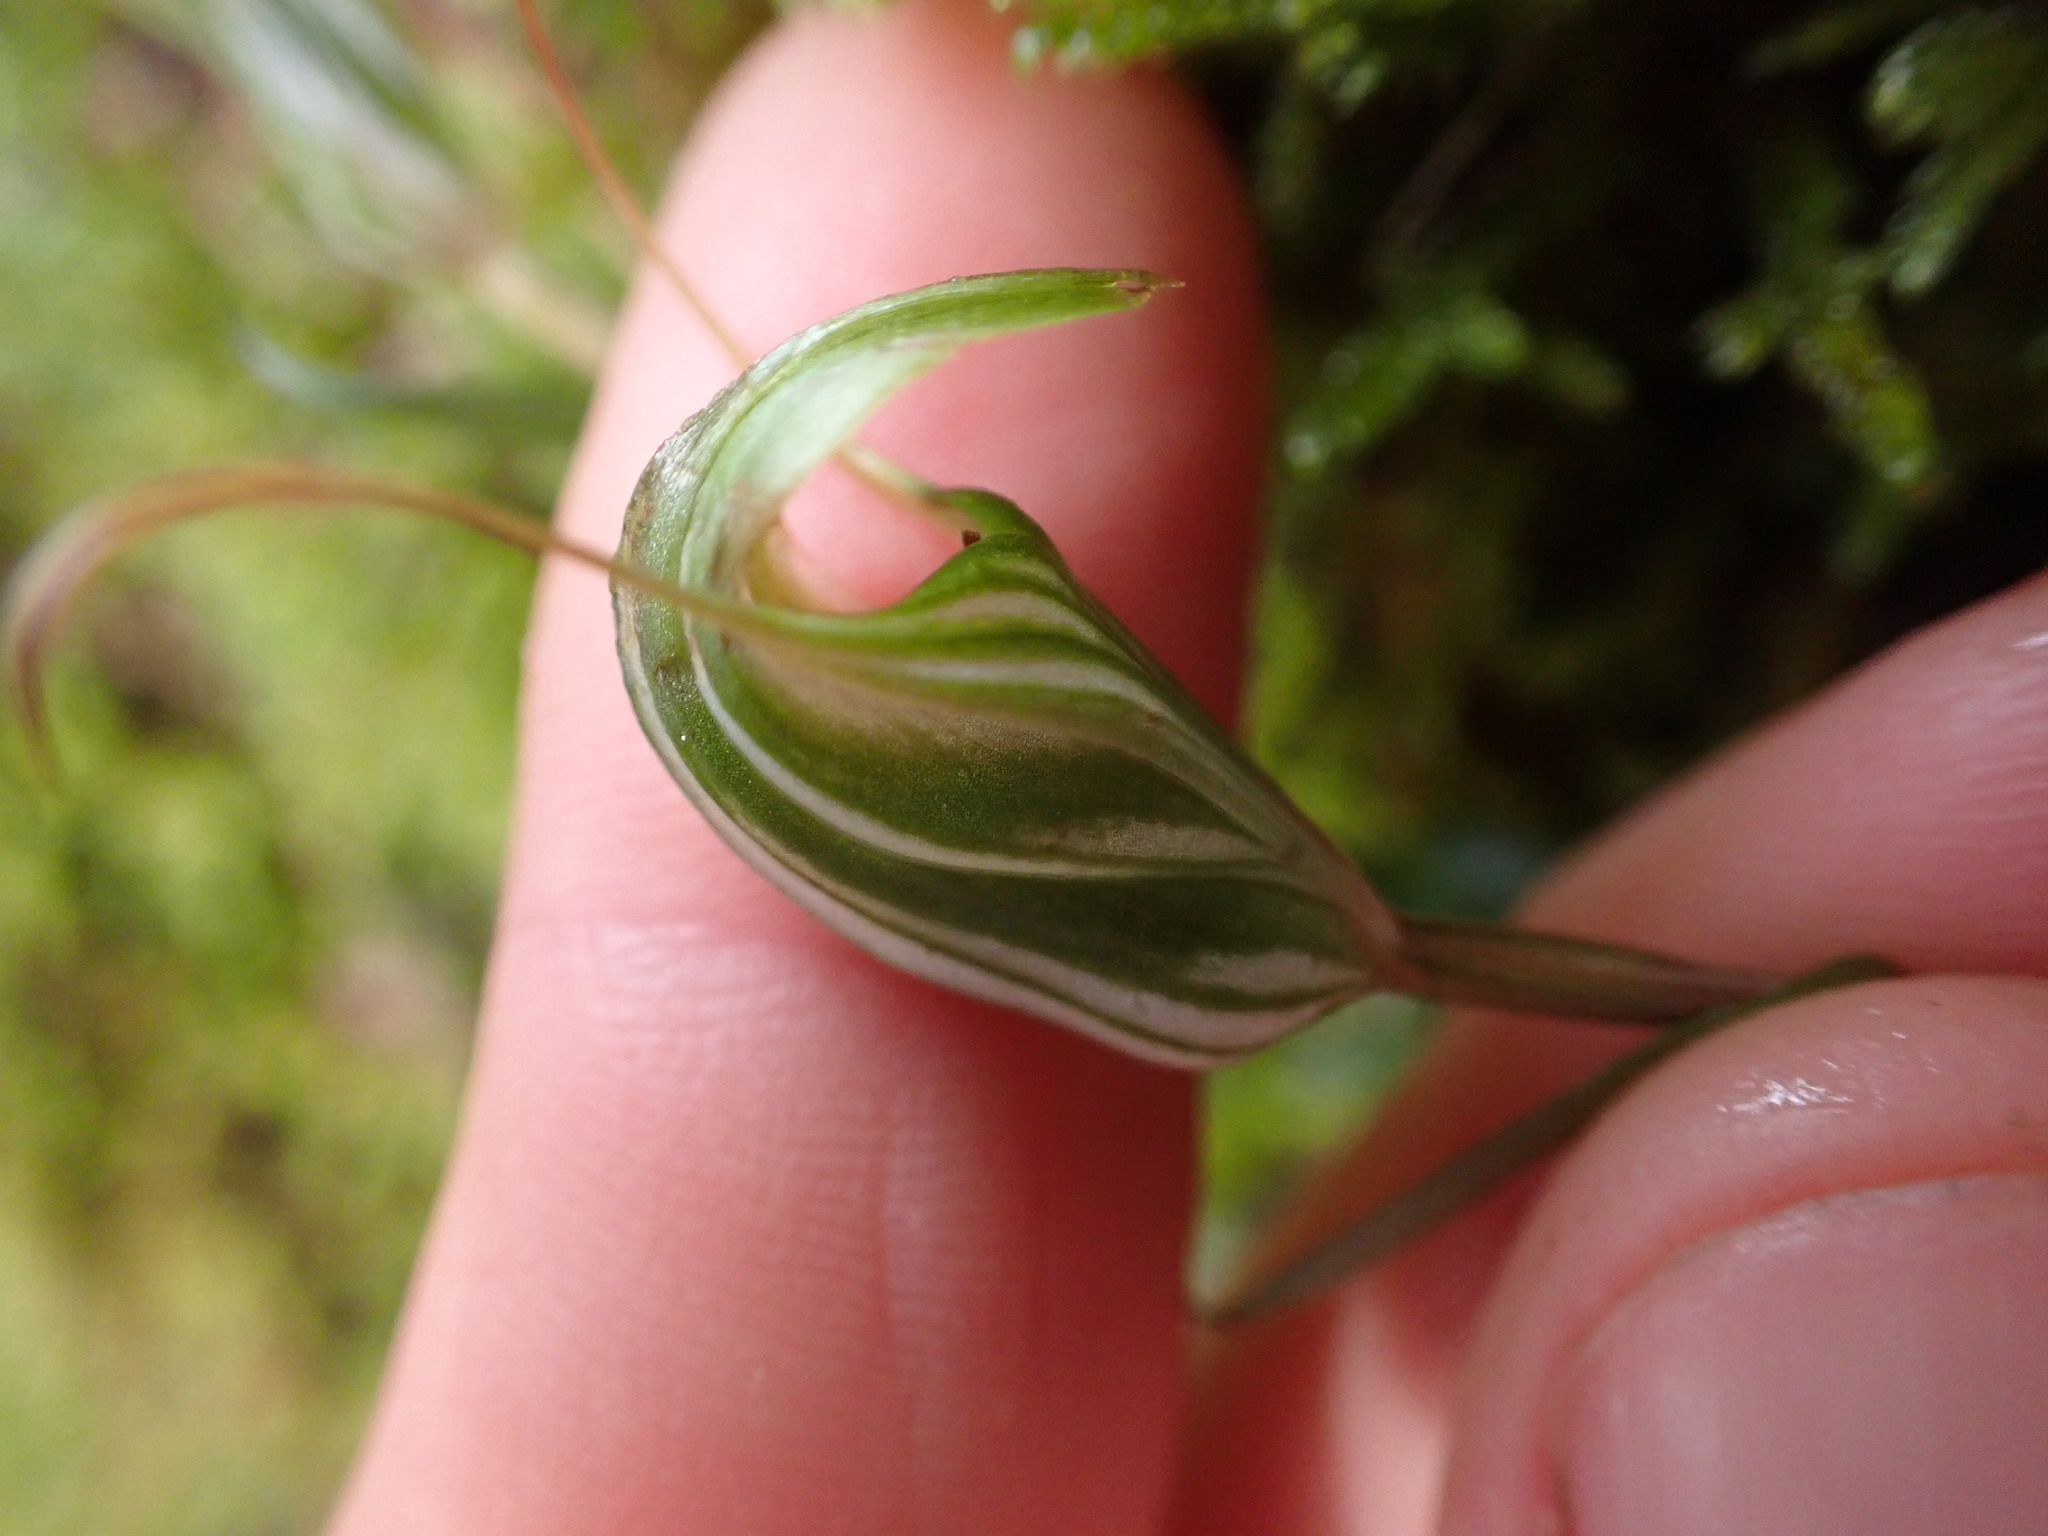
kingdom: Plantae
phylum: Tracheophyta
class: Liliopsida
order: Asparagales
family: Orchidaceae
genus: Pterostylis
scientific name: Pterostylis alobula
